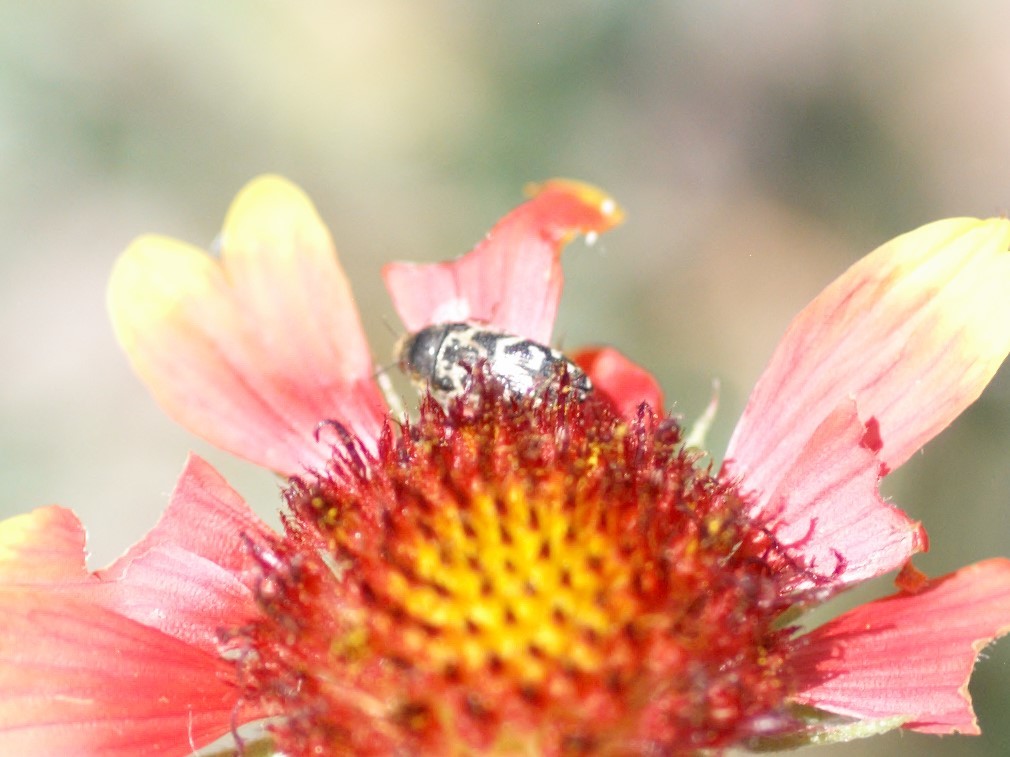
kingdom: Animalia
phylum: Arthropoda
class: Insecta
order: Coleoptera
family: Buprestidae
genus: Acmaeodera
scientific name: Acmaeodera mixta
